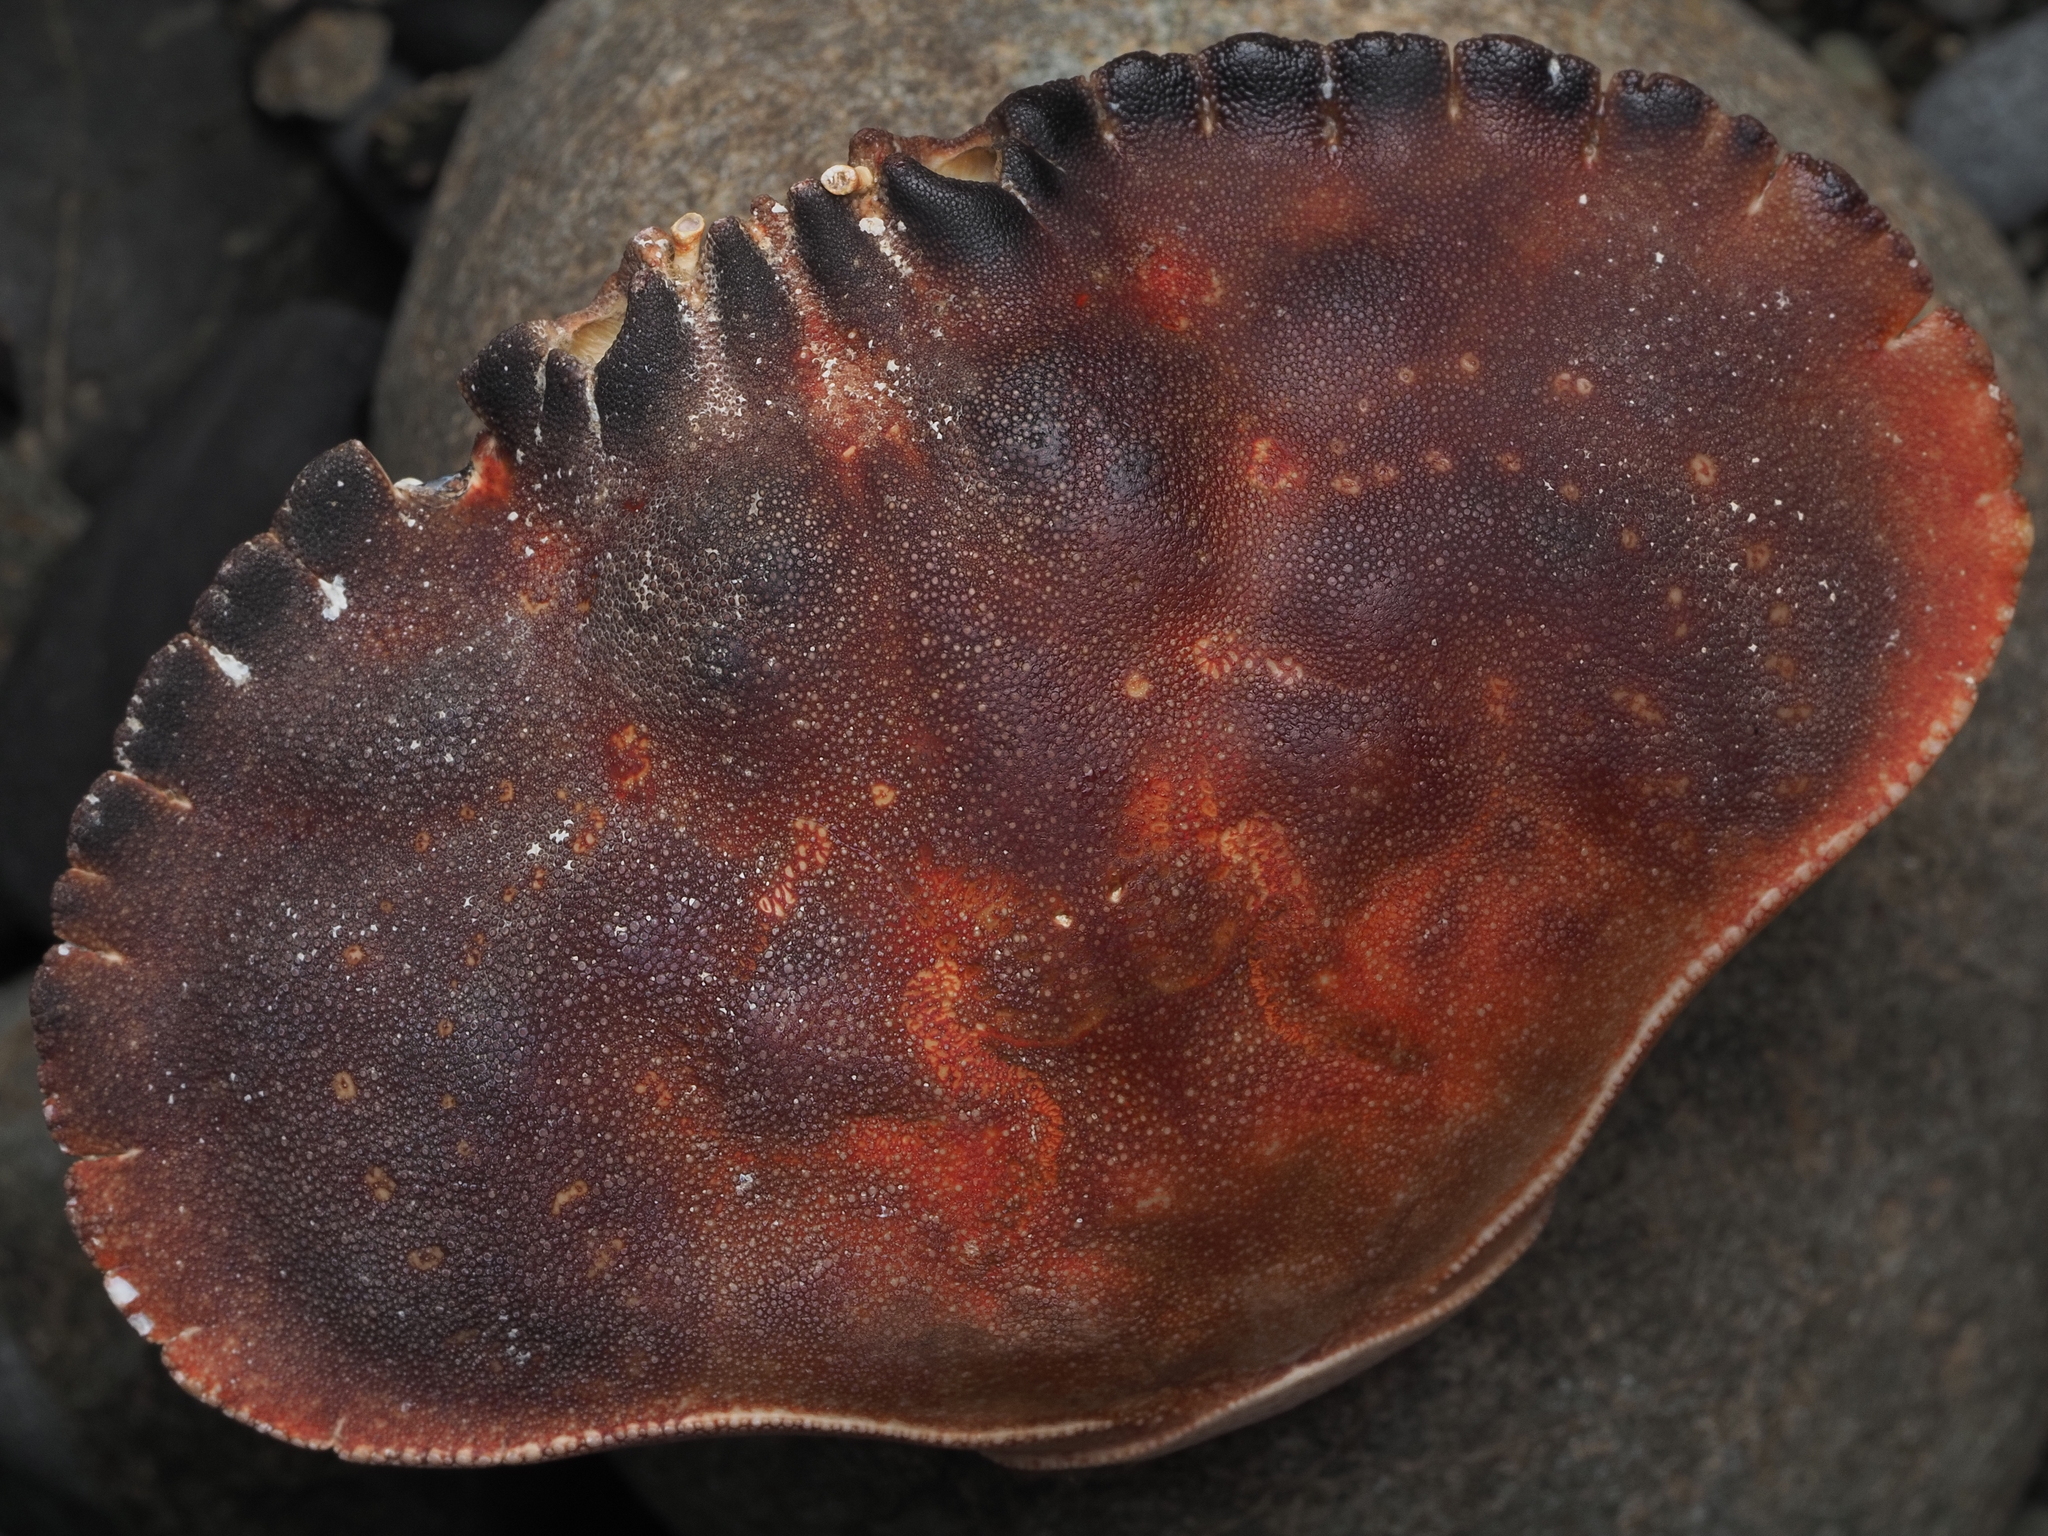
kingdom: Animalia
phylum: Arthropoda
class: Malacostraca
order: Decapoda
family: Cancridae
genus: Metacarcinus
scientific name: Metacarcinus novaezelandiae
